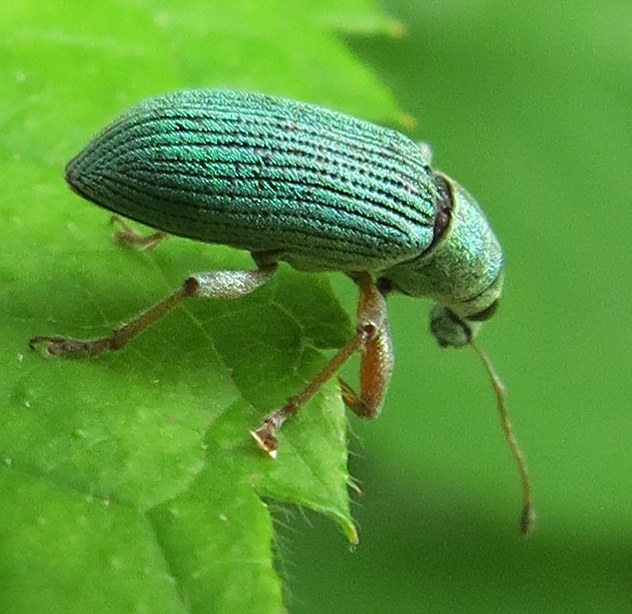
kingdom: Animalia
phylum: Arthropoda
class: Insecta
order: Coleoptera
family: Curculionidae
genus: Polydrusus
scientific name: Polydrusus formosus
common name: Weevil
